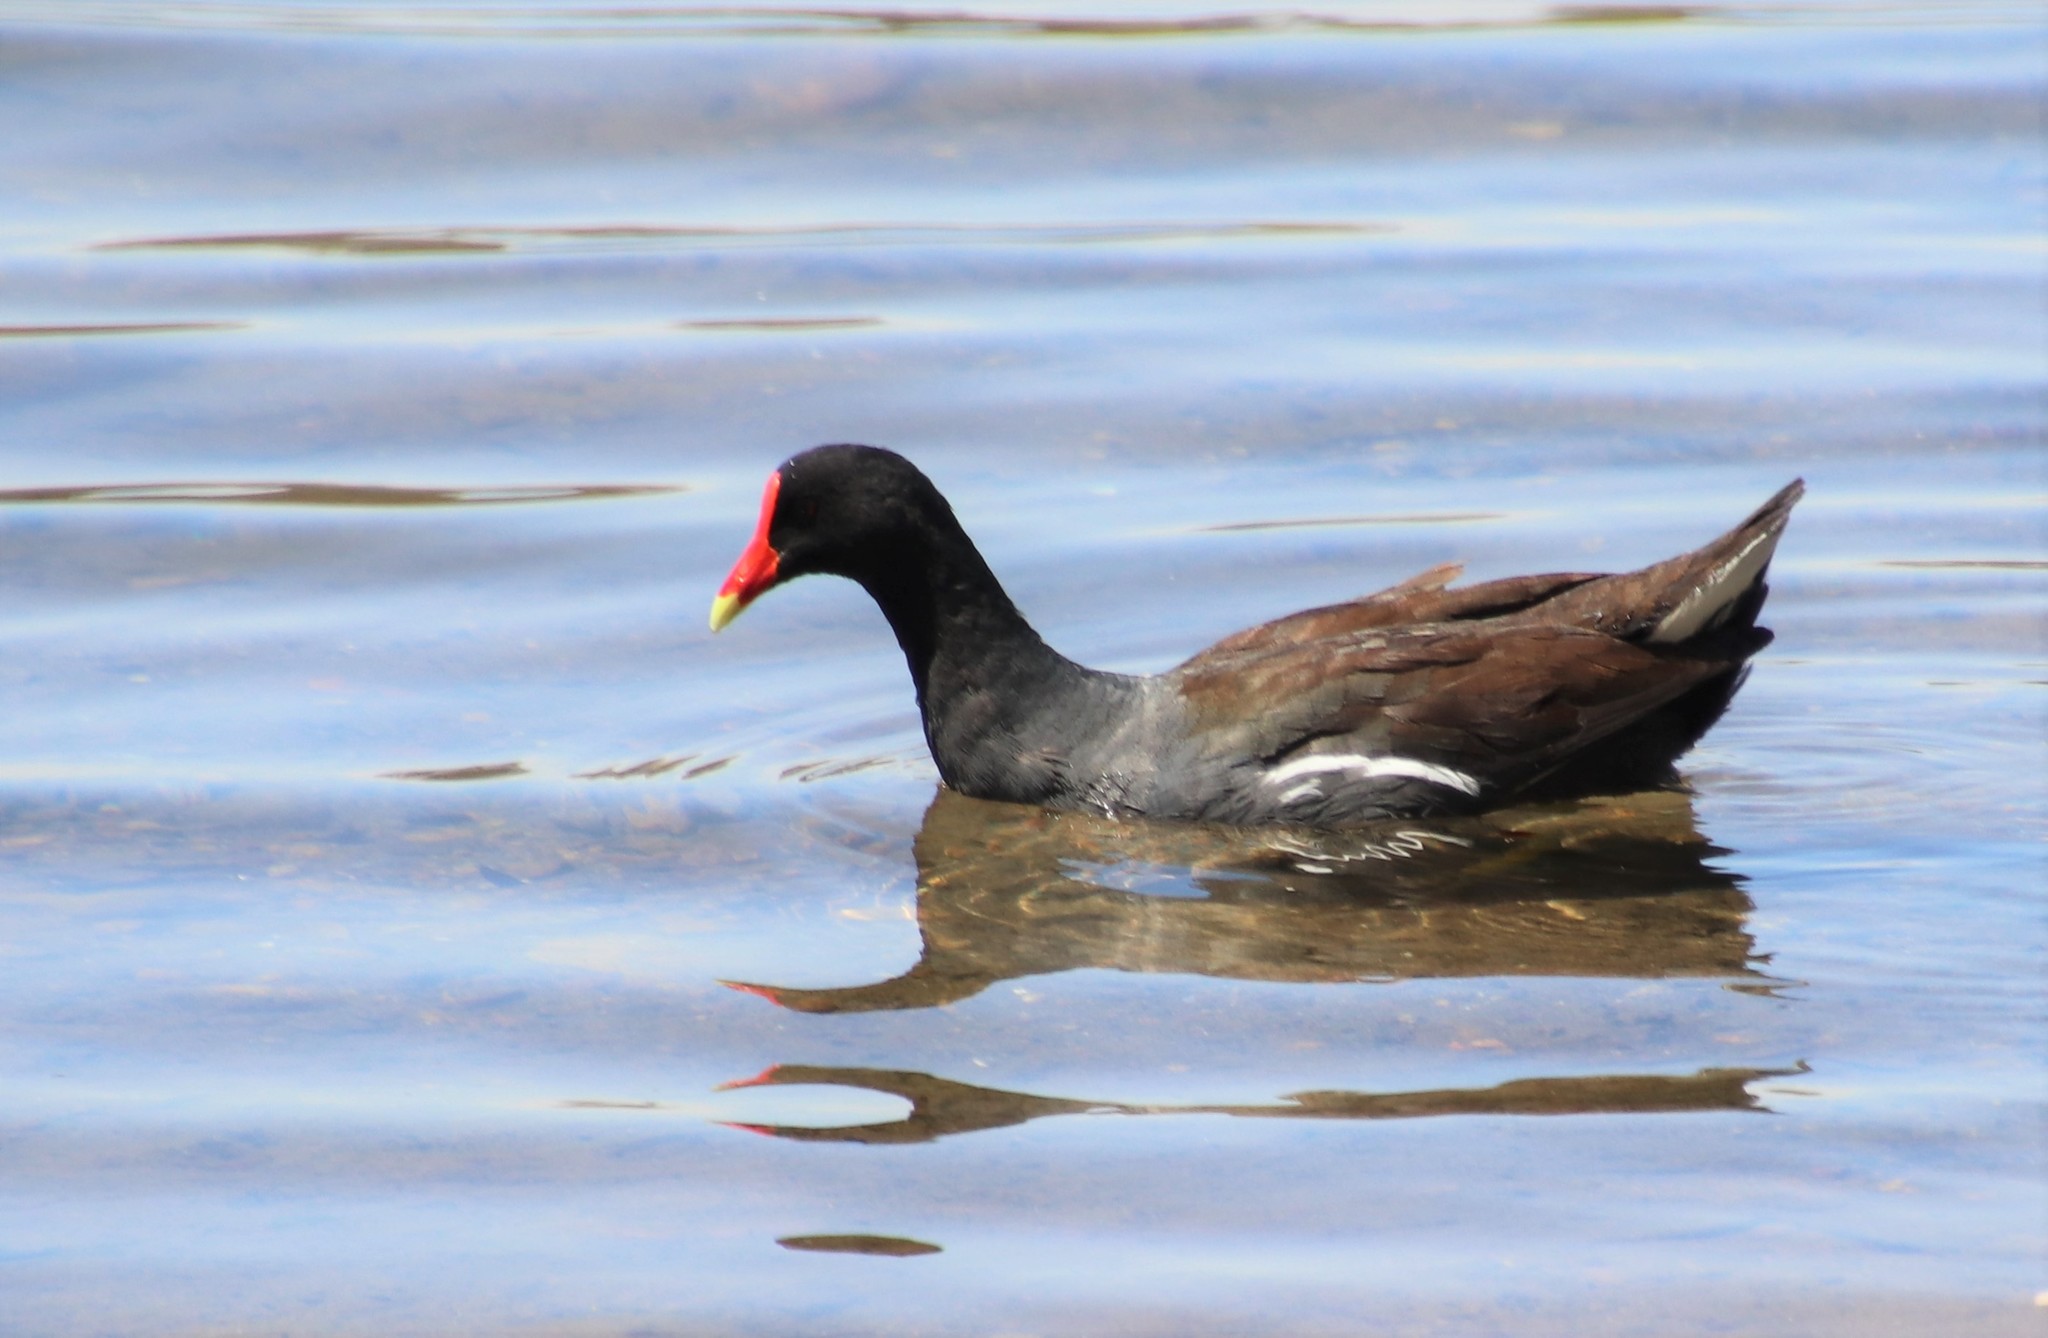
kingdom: Animalia
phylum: Chordata
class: Aves
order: Gruiformes
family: Rallidae
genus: Gallinula
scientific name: Gallinula chloropus
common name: Common moorhen
